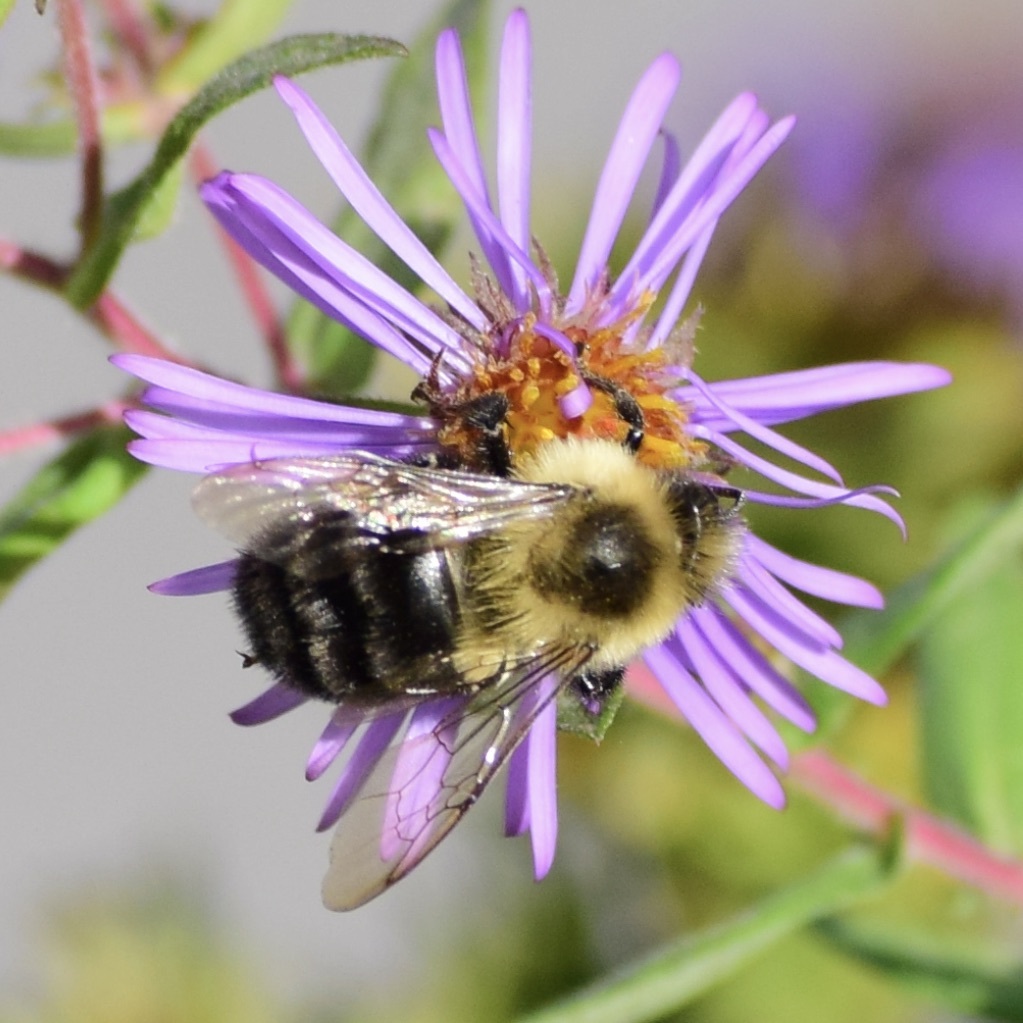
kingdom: Animalia
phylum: Arthropoda
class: Insecta
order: Hymenoptera
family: Apidae
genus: Bombus
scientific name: Bombus impatiens
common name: Common eastern bumble bee
